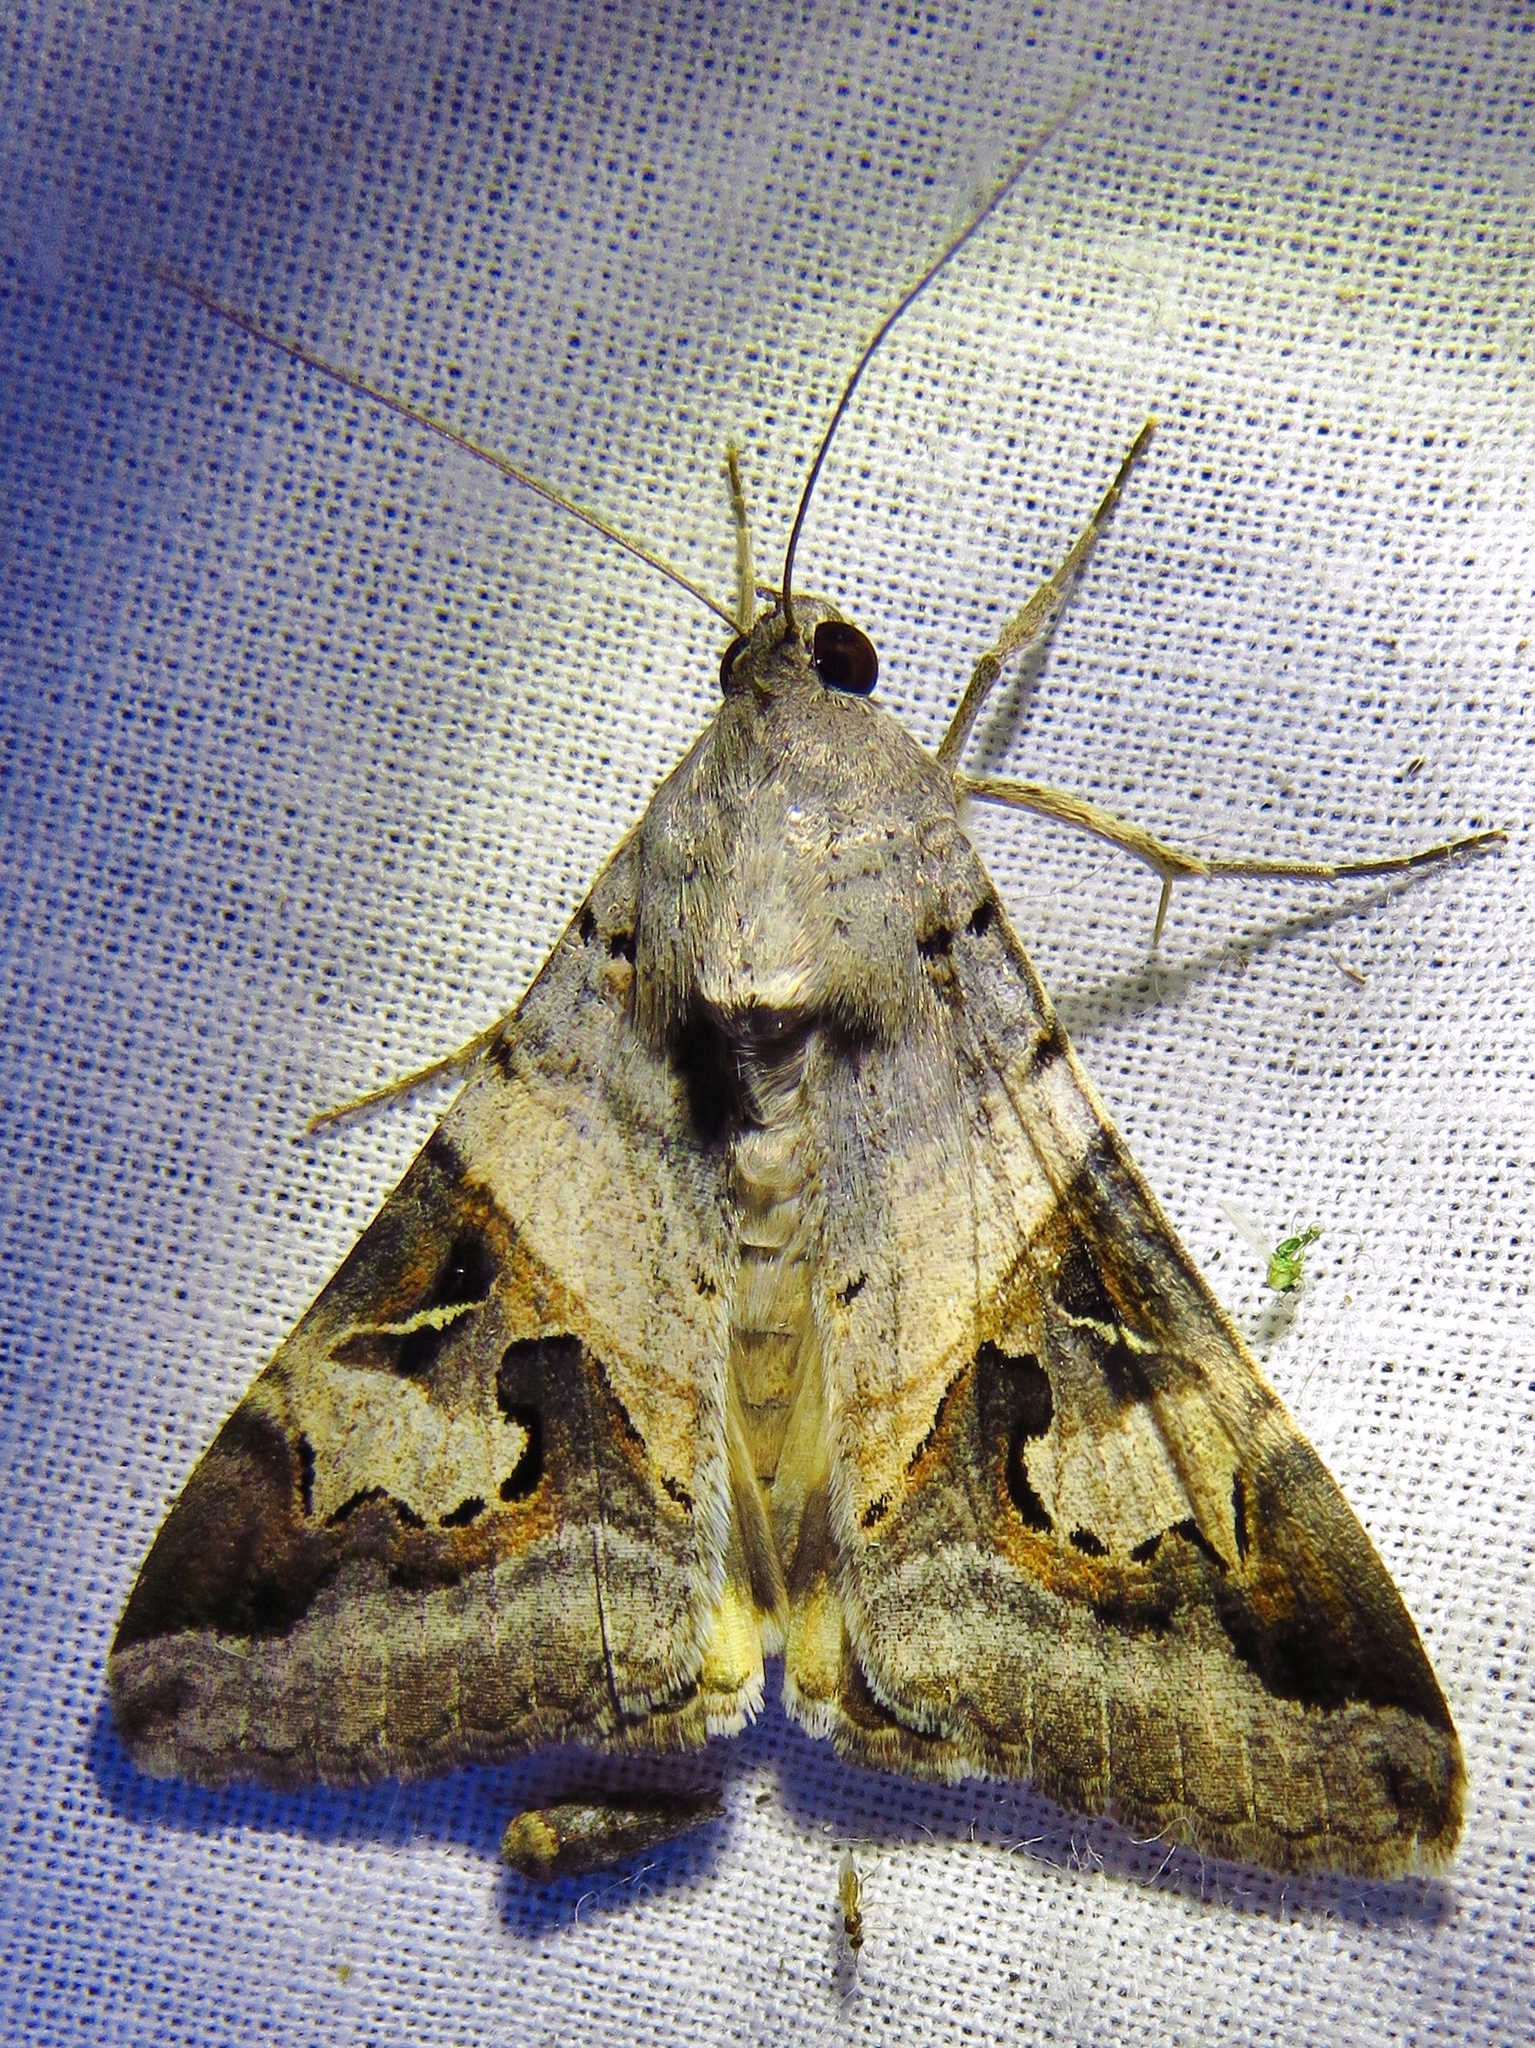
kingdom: Animalia
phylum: Arthropoda
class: Insecta
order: Lepidoptera
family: Erebidae
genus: Melipotis
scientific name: Melipotis indomita
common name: Moth
